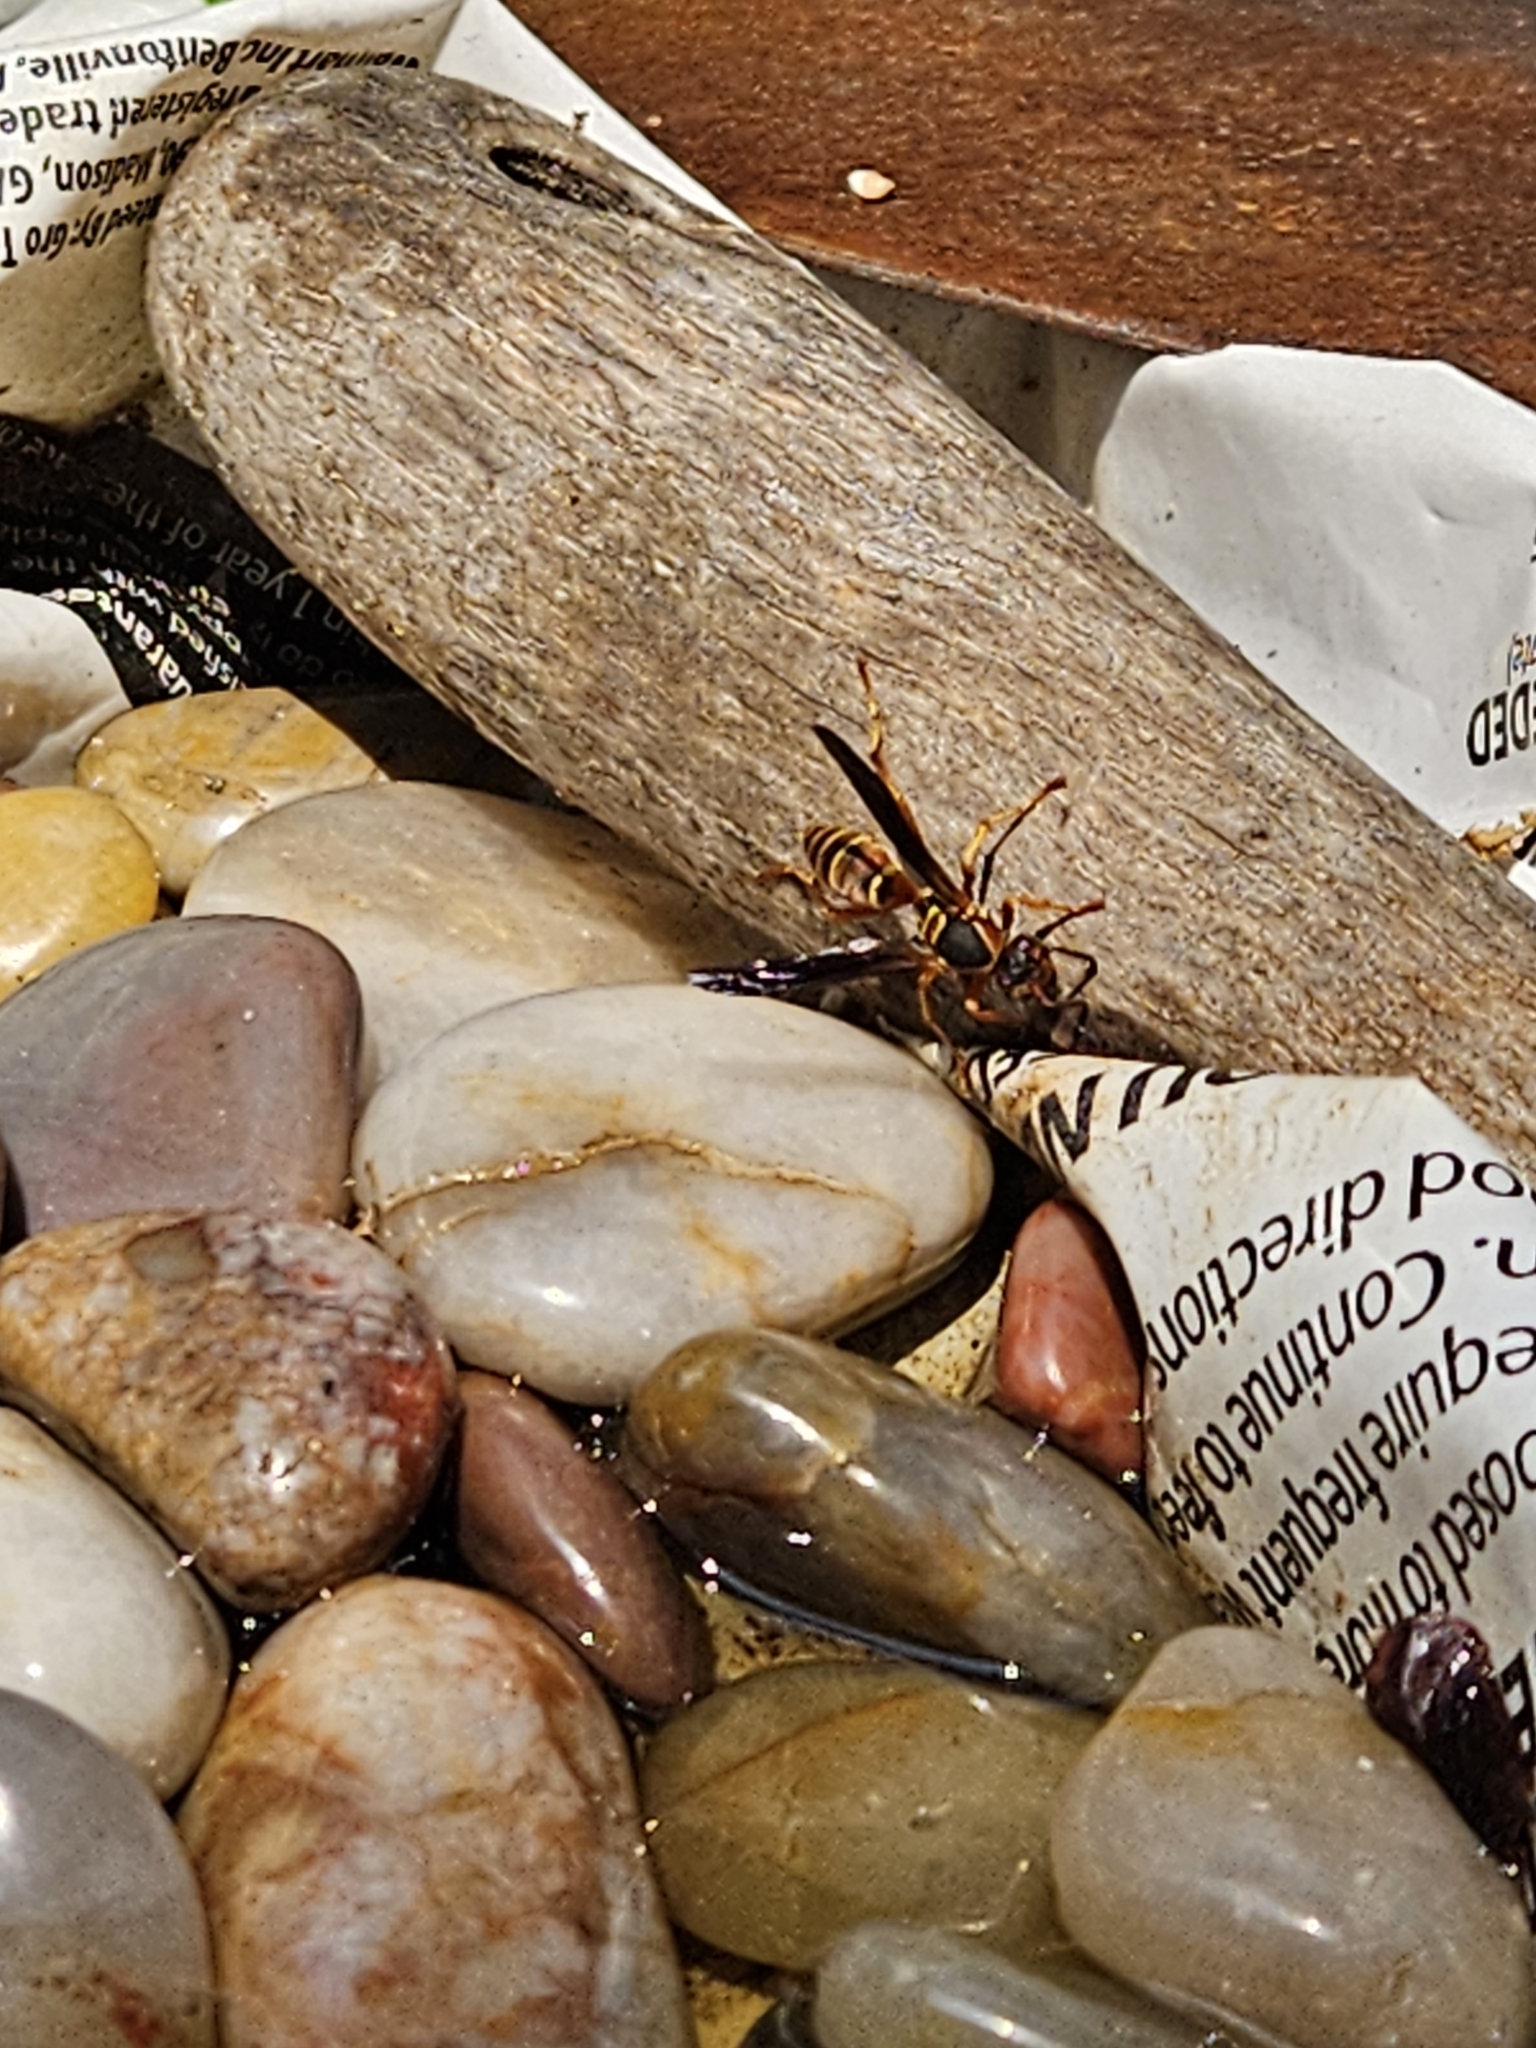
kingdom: Animalia
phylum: Arthropoda
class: Insecta
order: Hymenoptera
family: Eumenidae
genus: Polistes
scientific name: Polistes fuscatus
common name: Dark paper wasp
